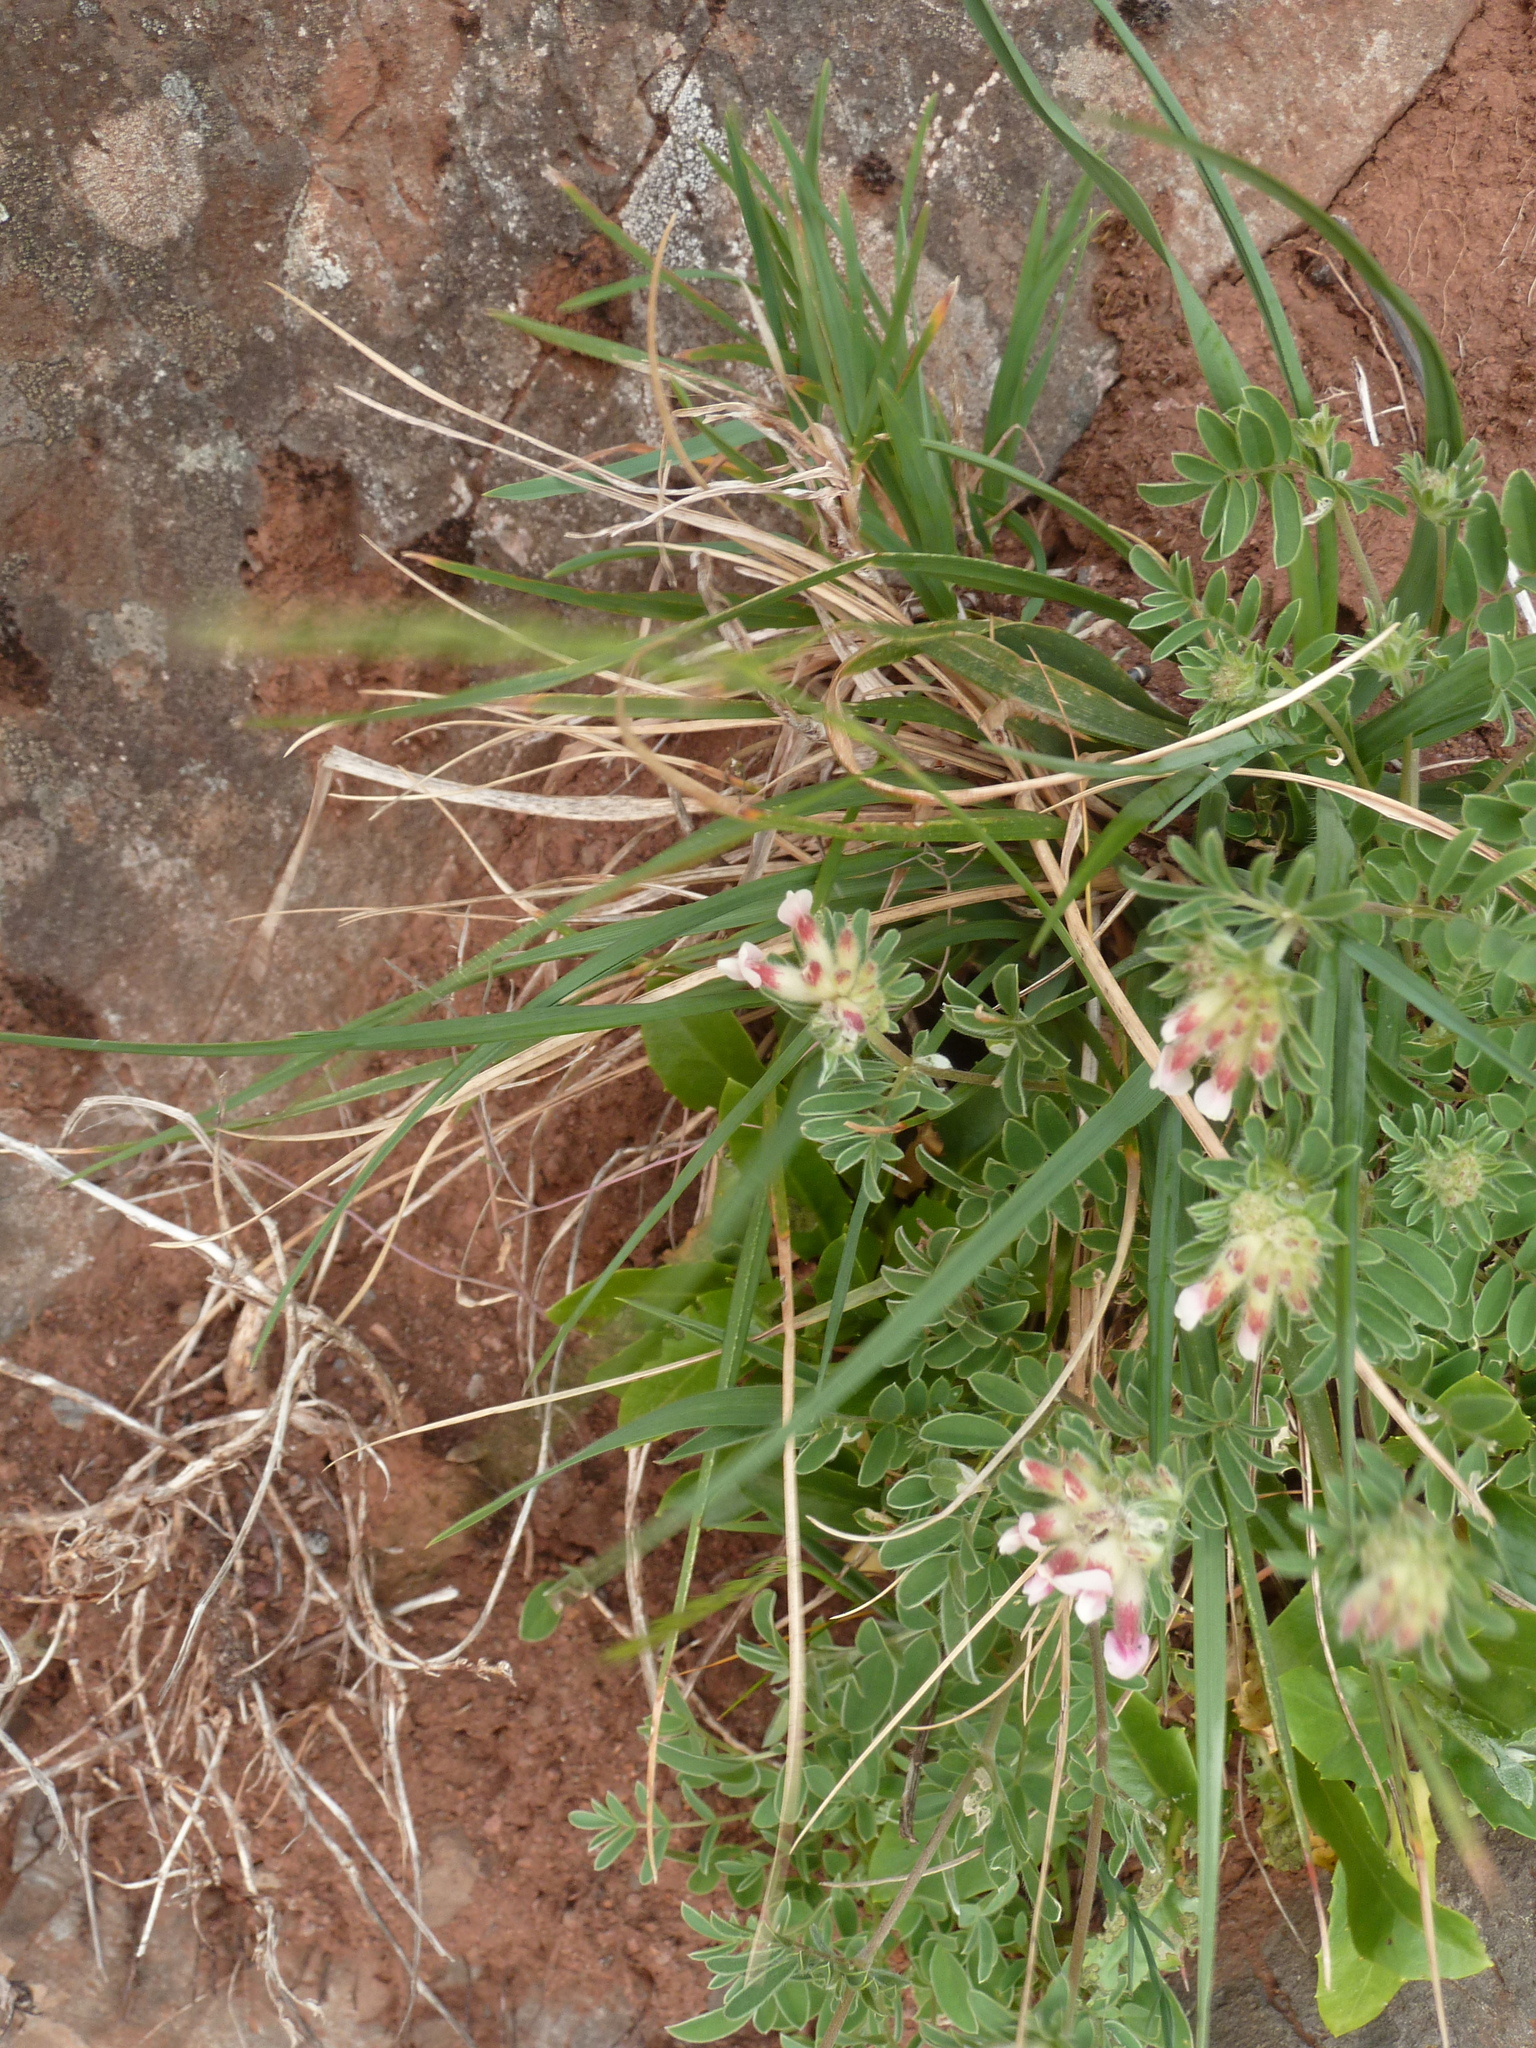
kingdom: Plantae
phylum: Tracheophyta
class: Magnoliopsida
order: Fabales
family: Fabaceae
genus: Anthyllis
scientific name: Anthyllis lemanniana
